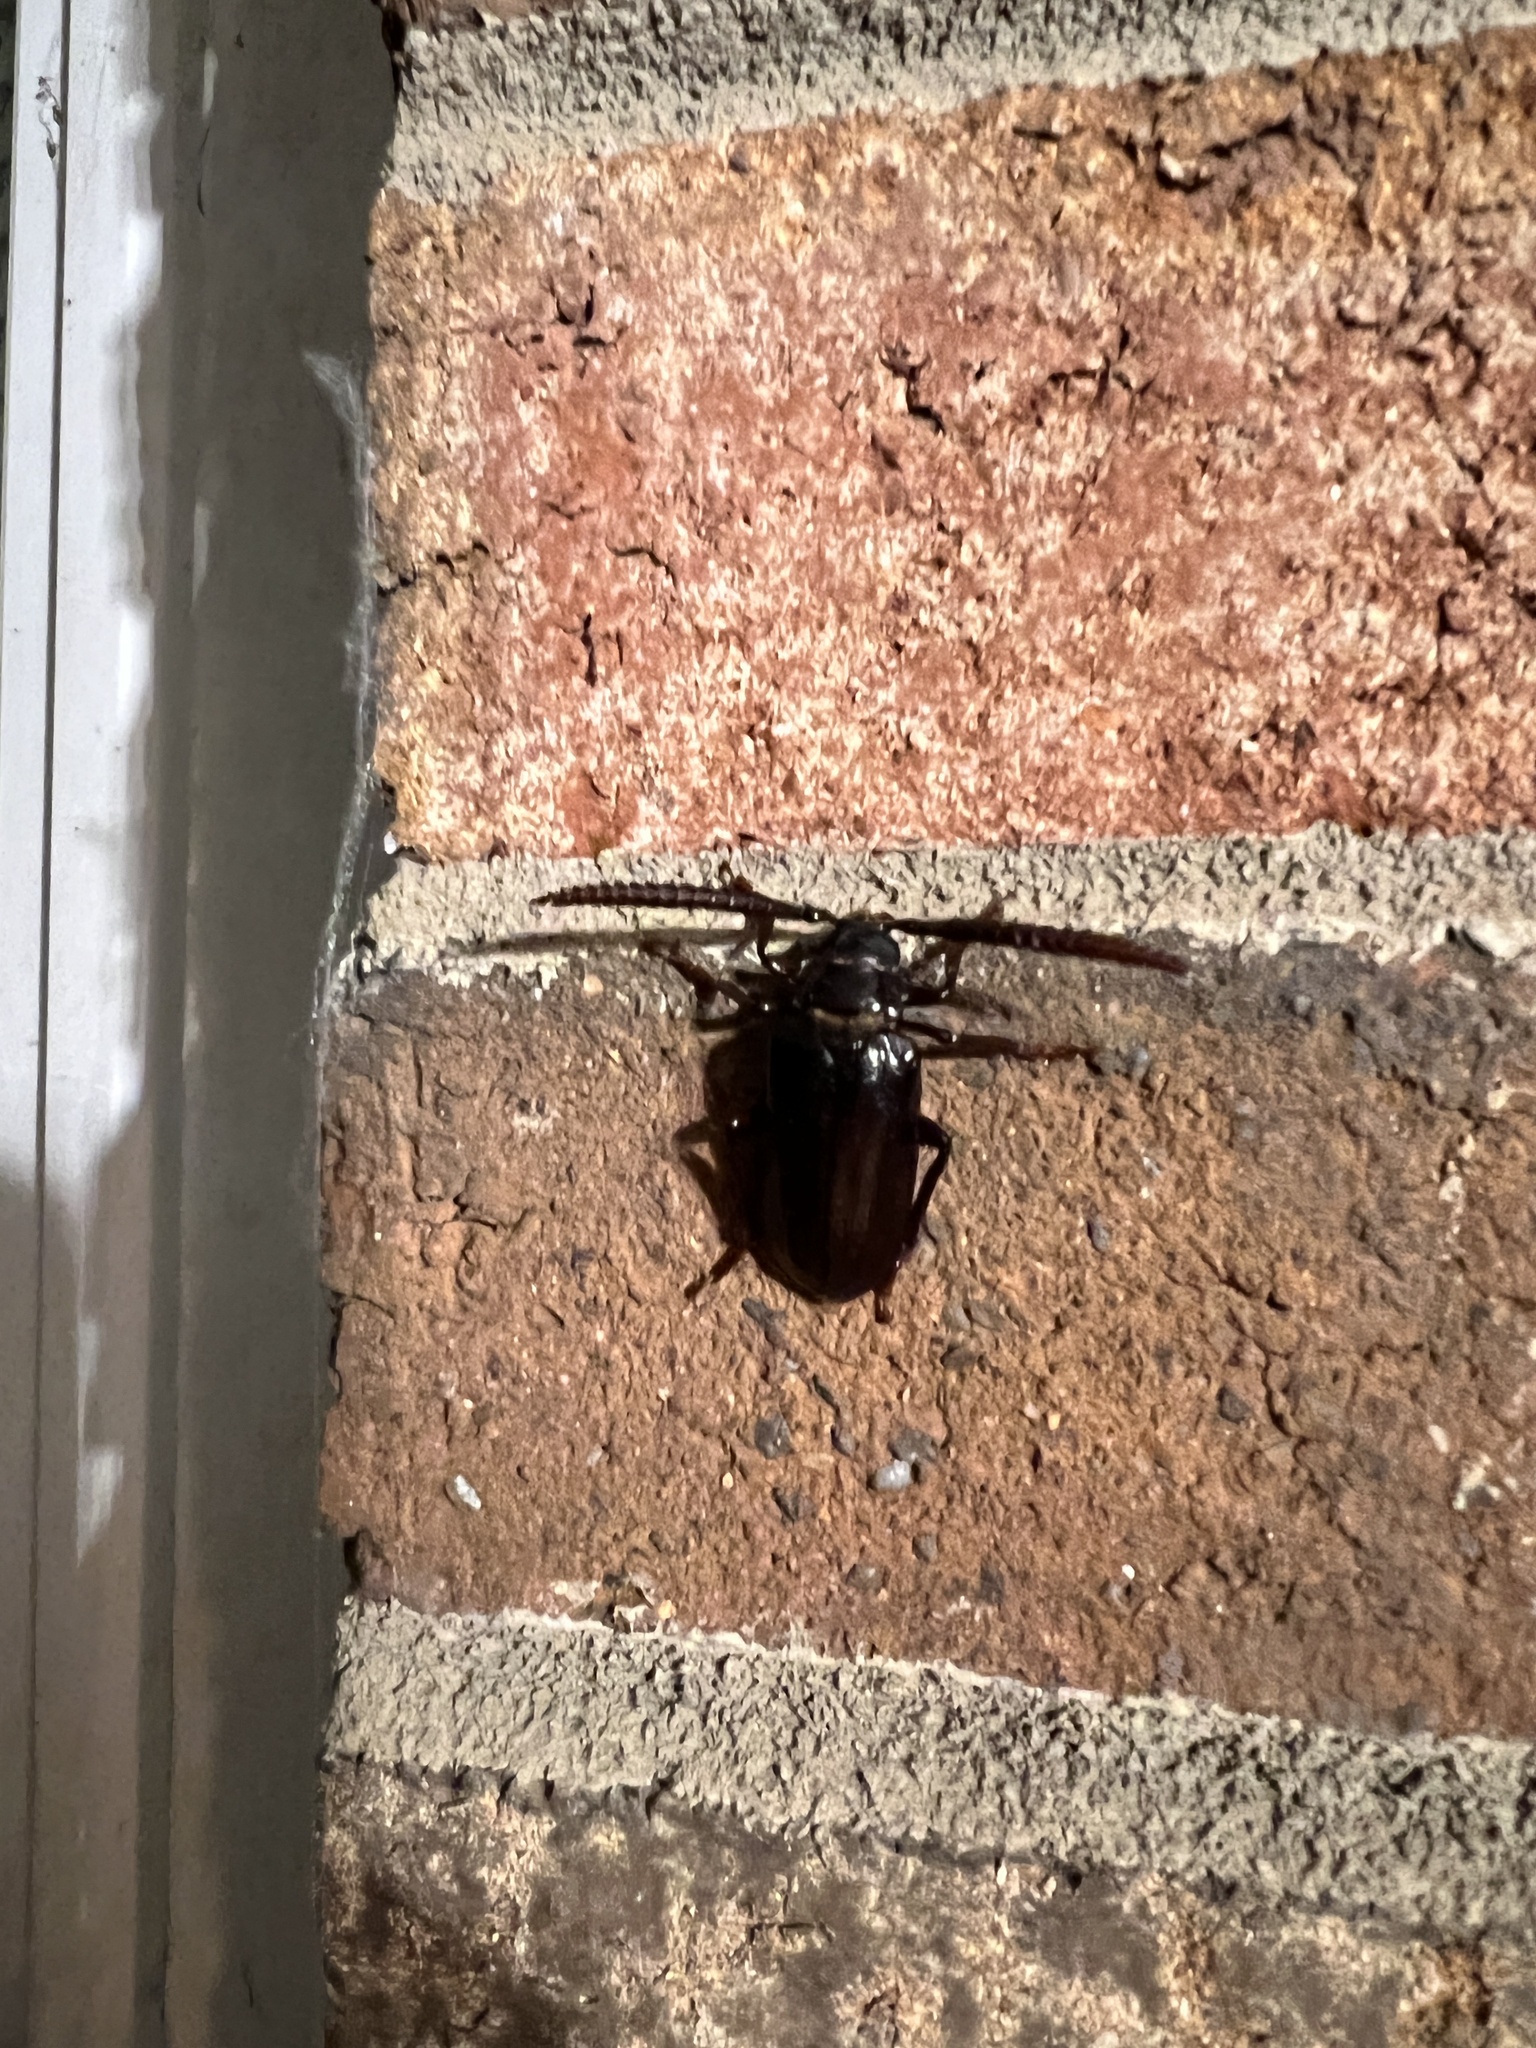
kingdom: Animalia
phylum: Arthropoda
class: Insecta
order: Coleoptera
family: Cerambycidae
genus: Prionus
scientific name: Prionus imbricornis
